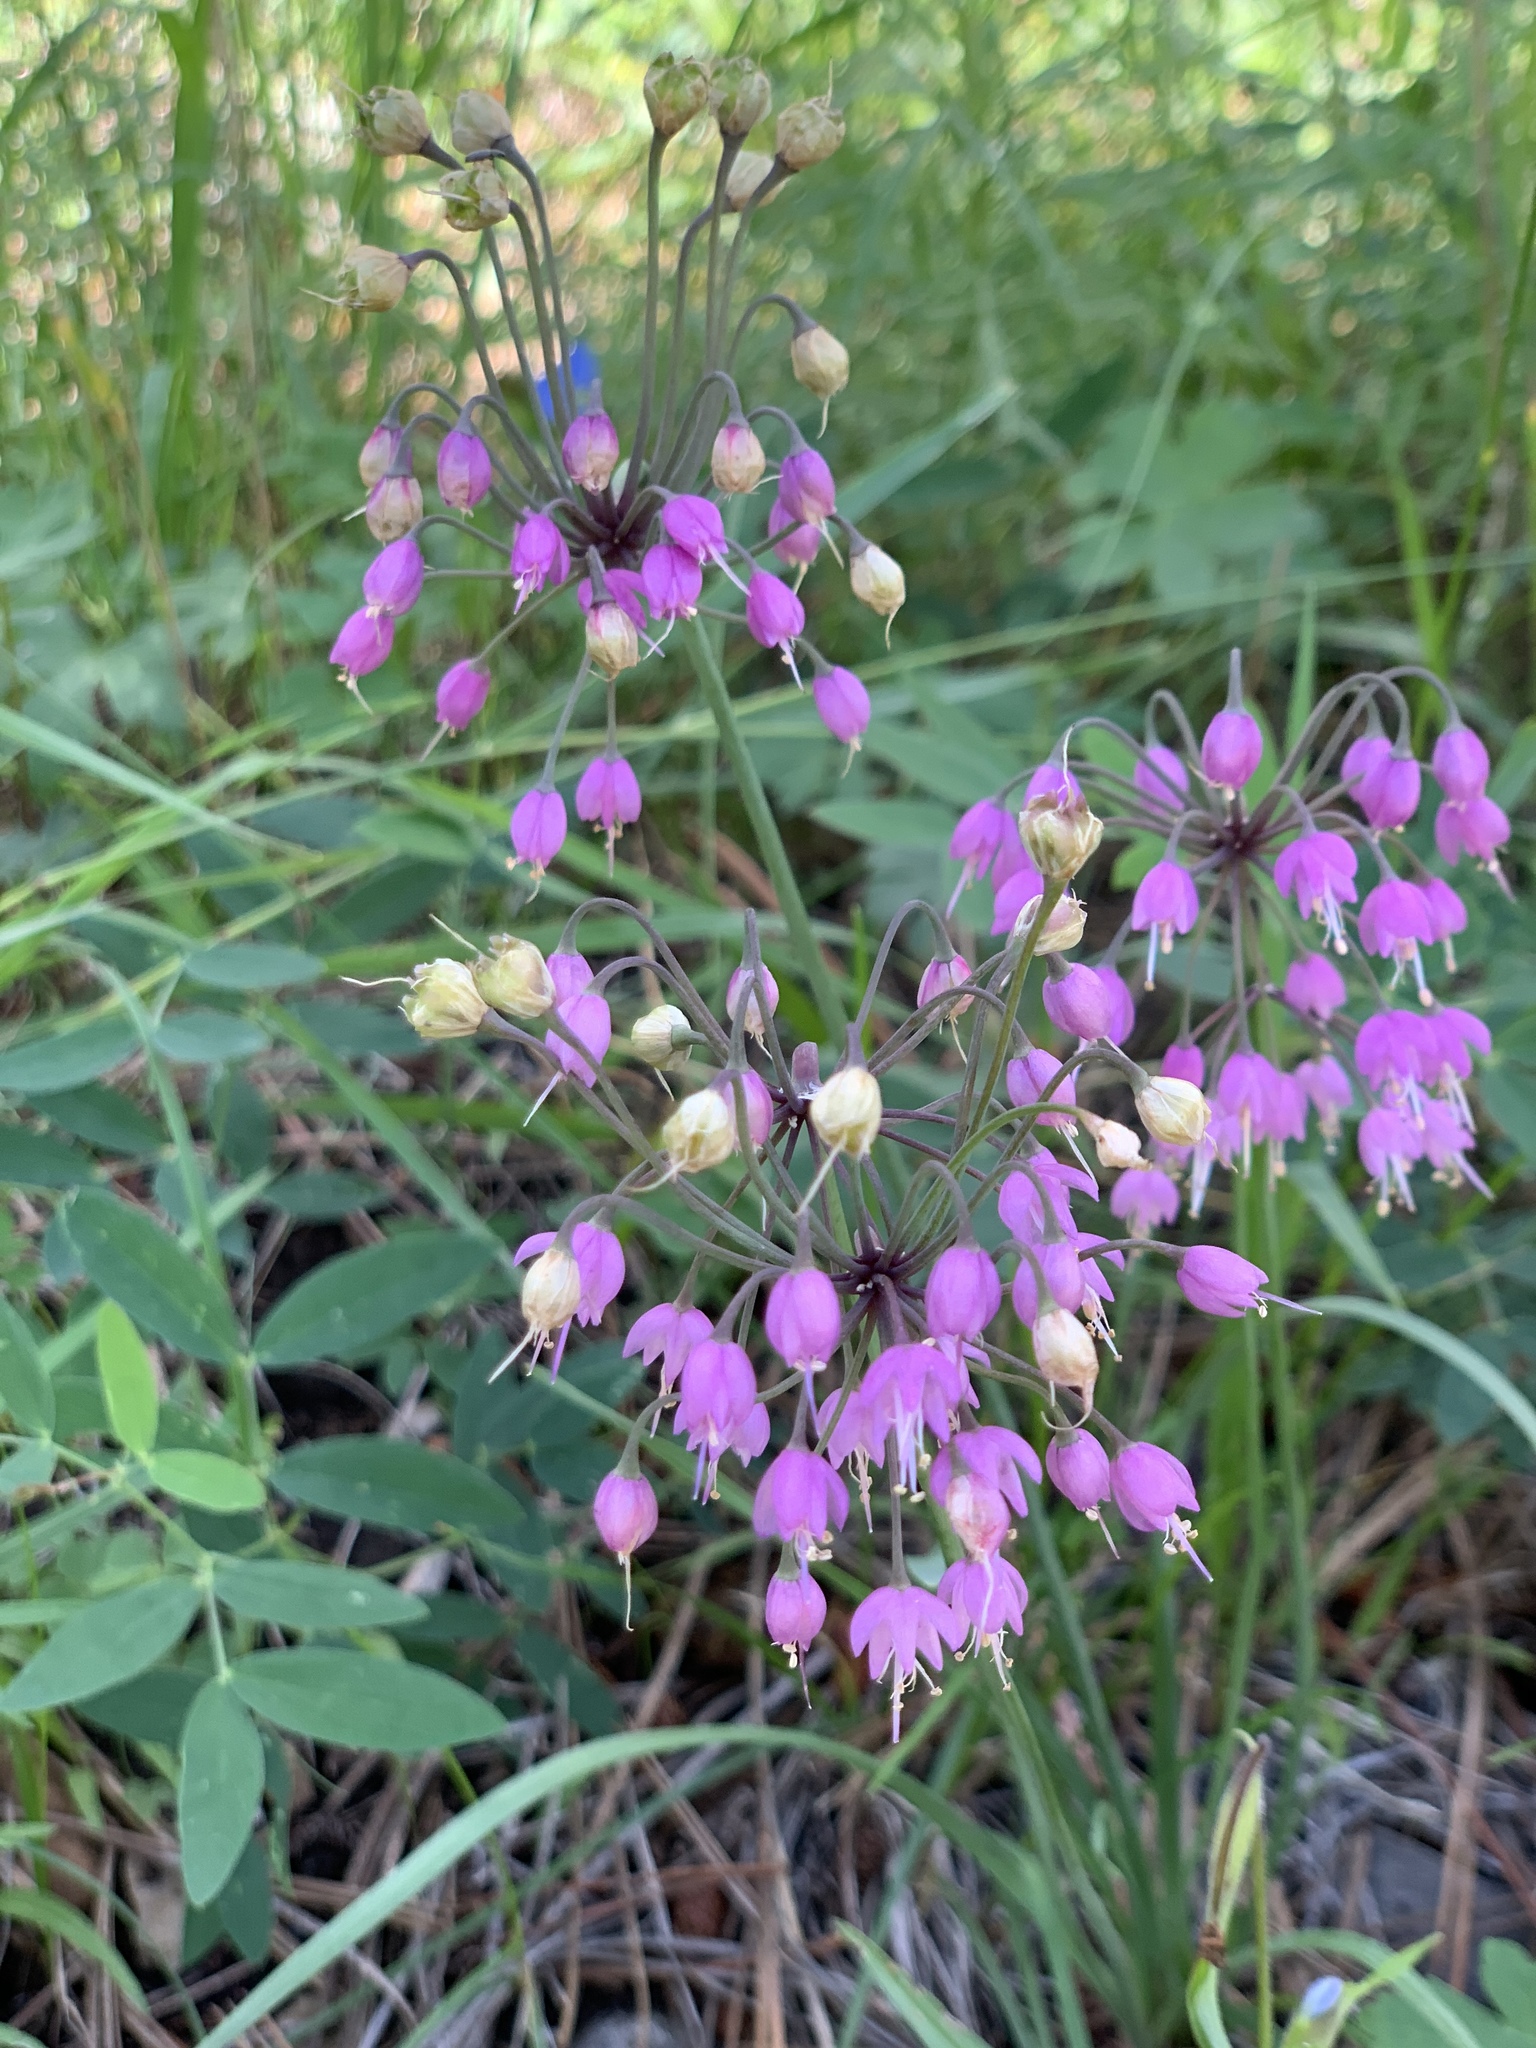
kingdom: Plantae
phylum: Tracheophyta
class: Liliopsida
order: Asparagales
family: Amaryllidaceae
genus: Allium
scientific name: Allium cernuum
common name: Nodding onion
